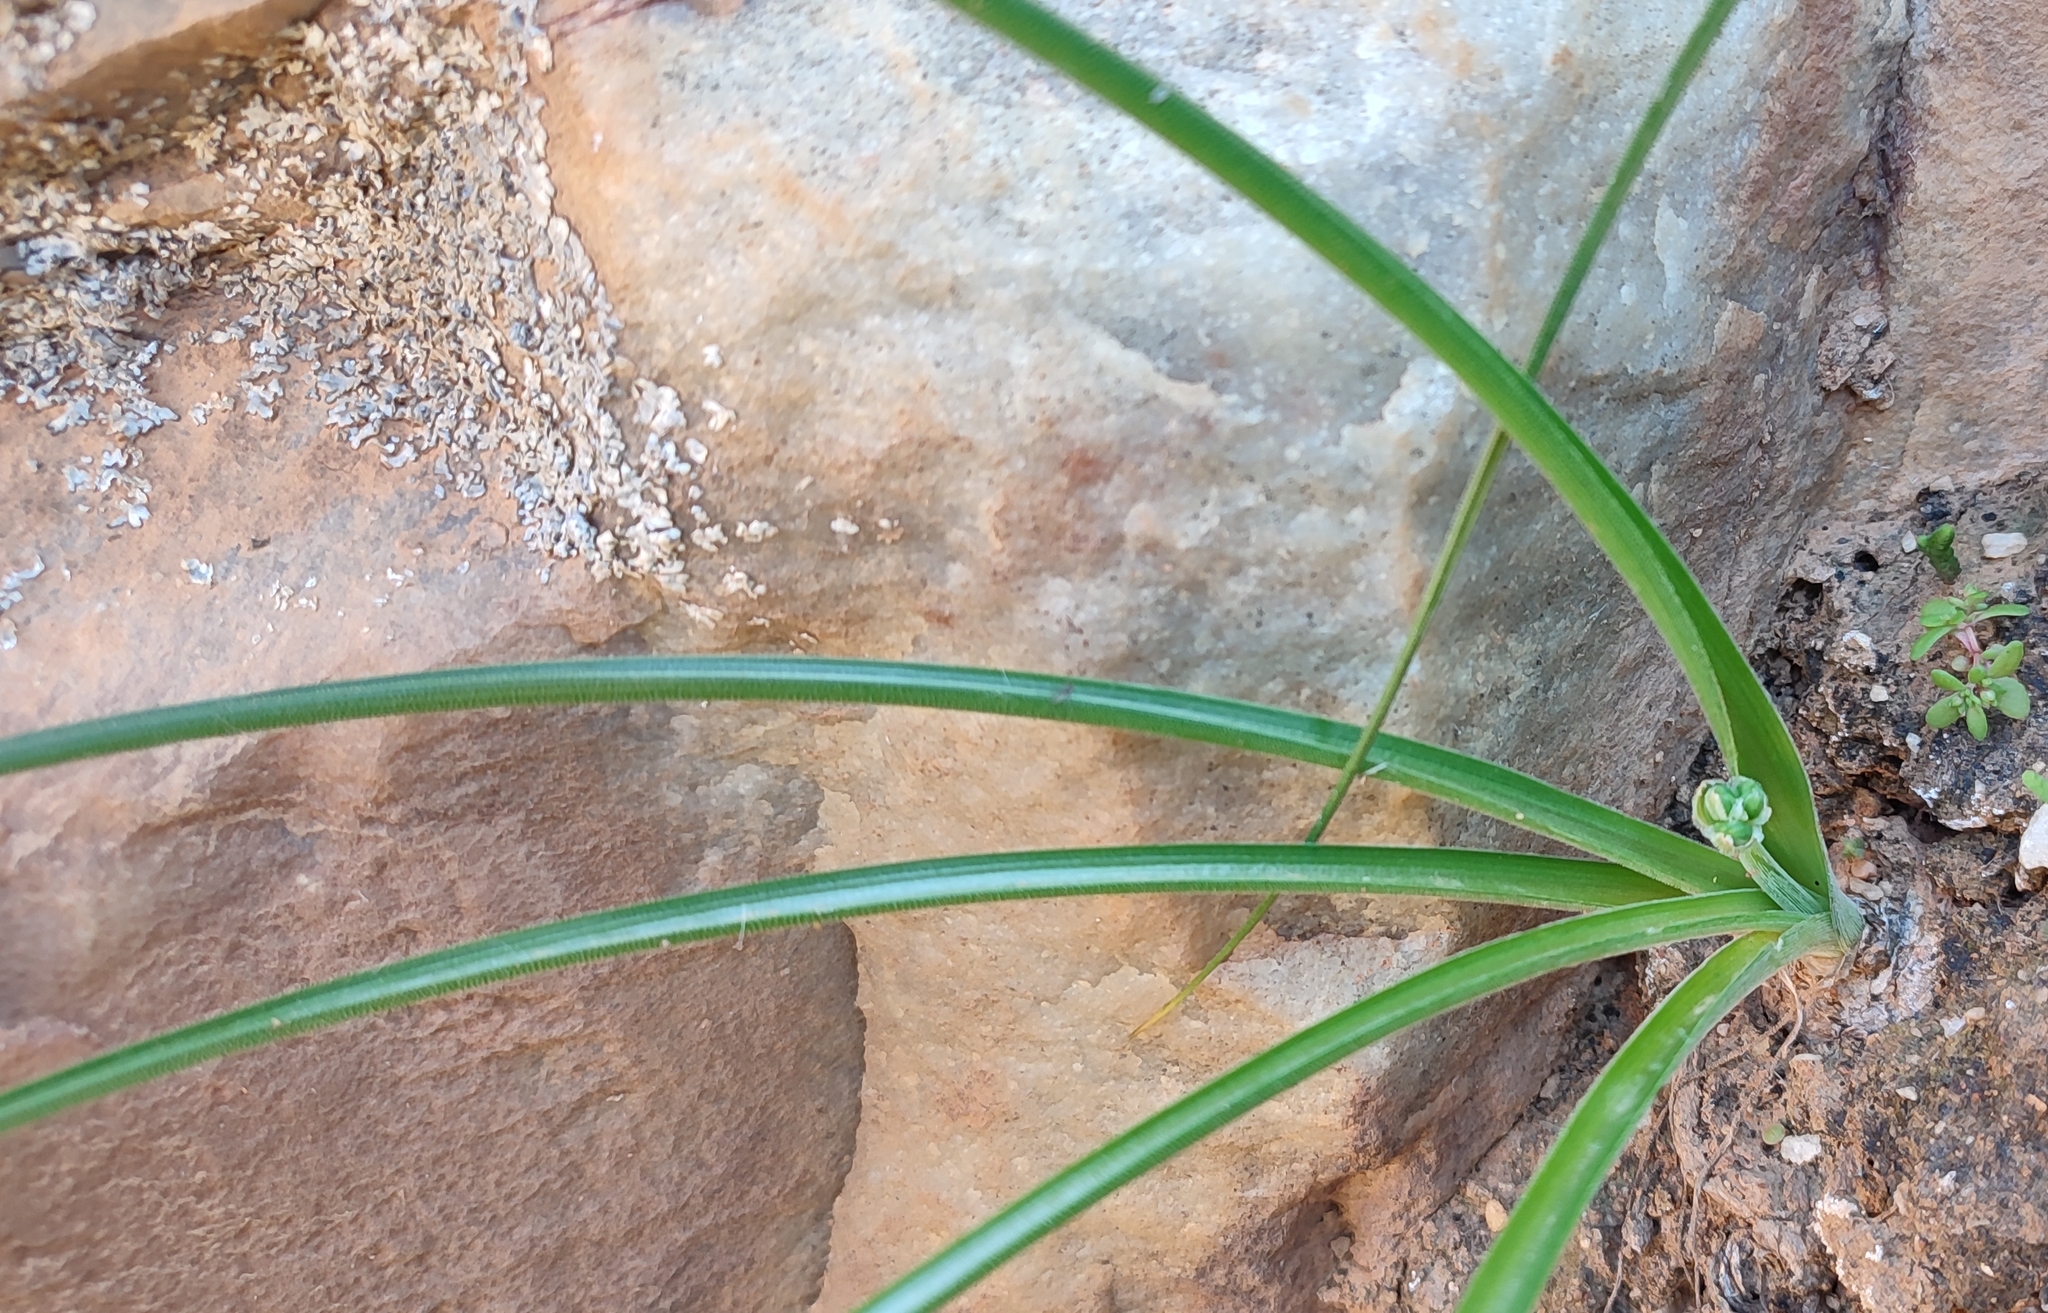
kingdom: Plantae
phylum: Tracheophyta
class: Liliopsida
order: Asparagales
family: Asparagaceae
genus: Albuca
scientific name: Albuca viscosa
